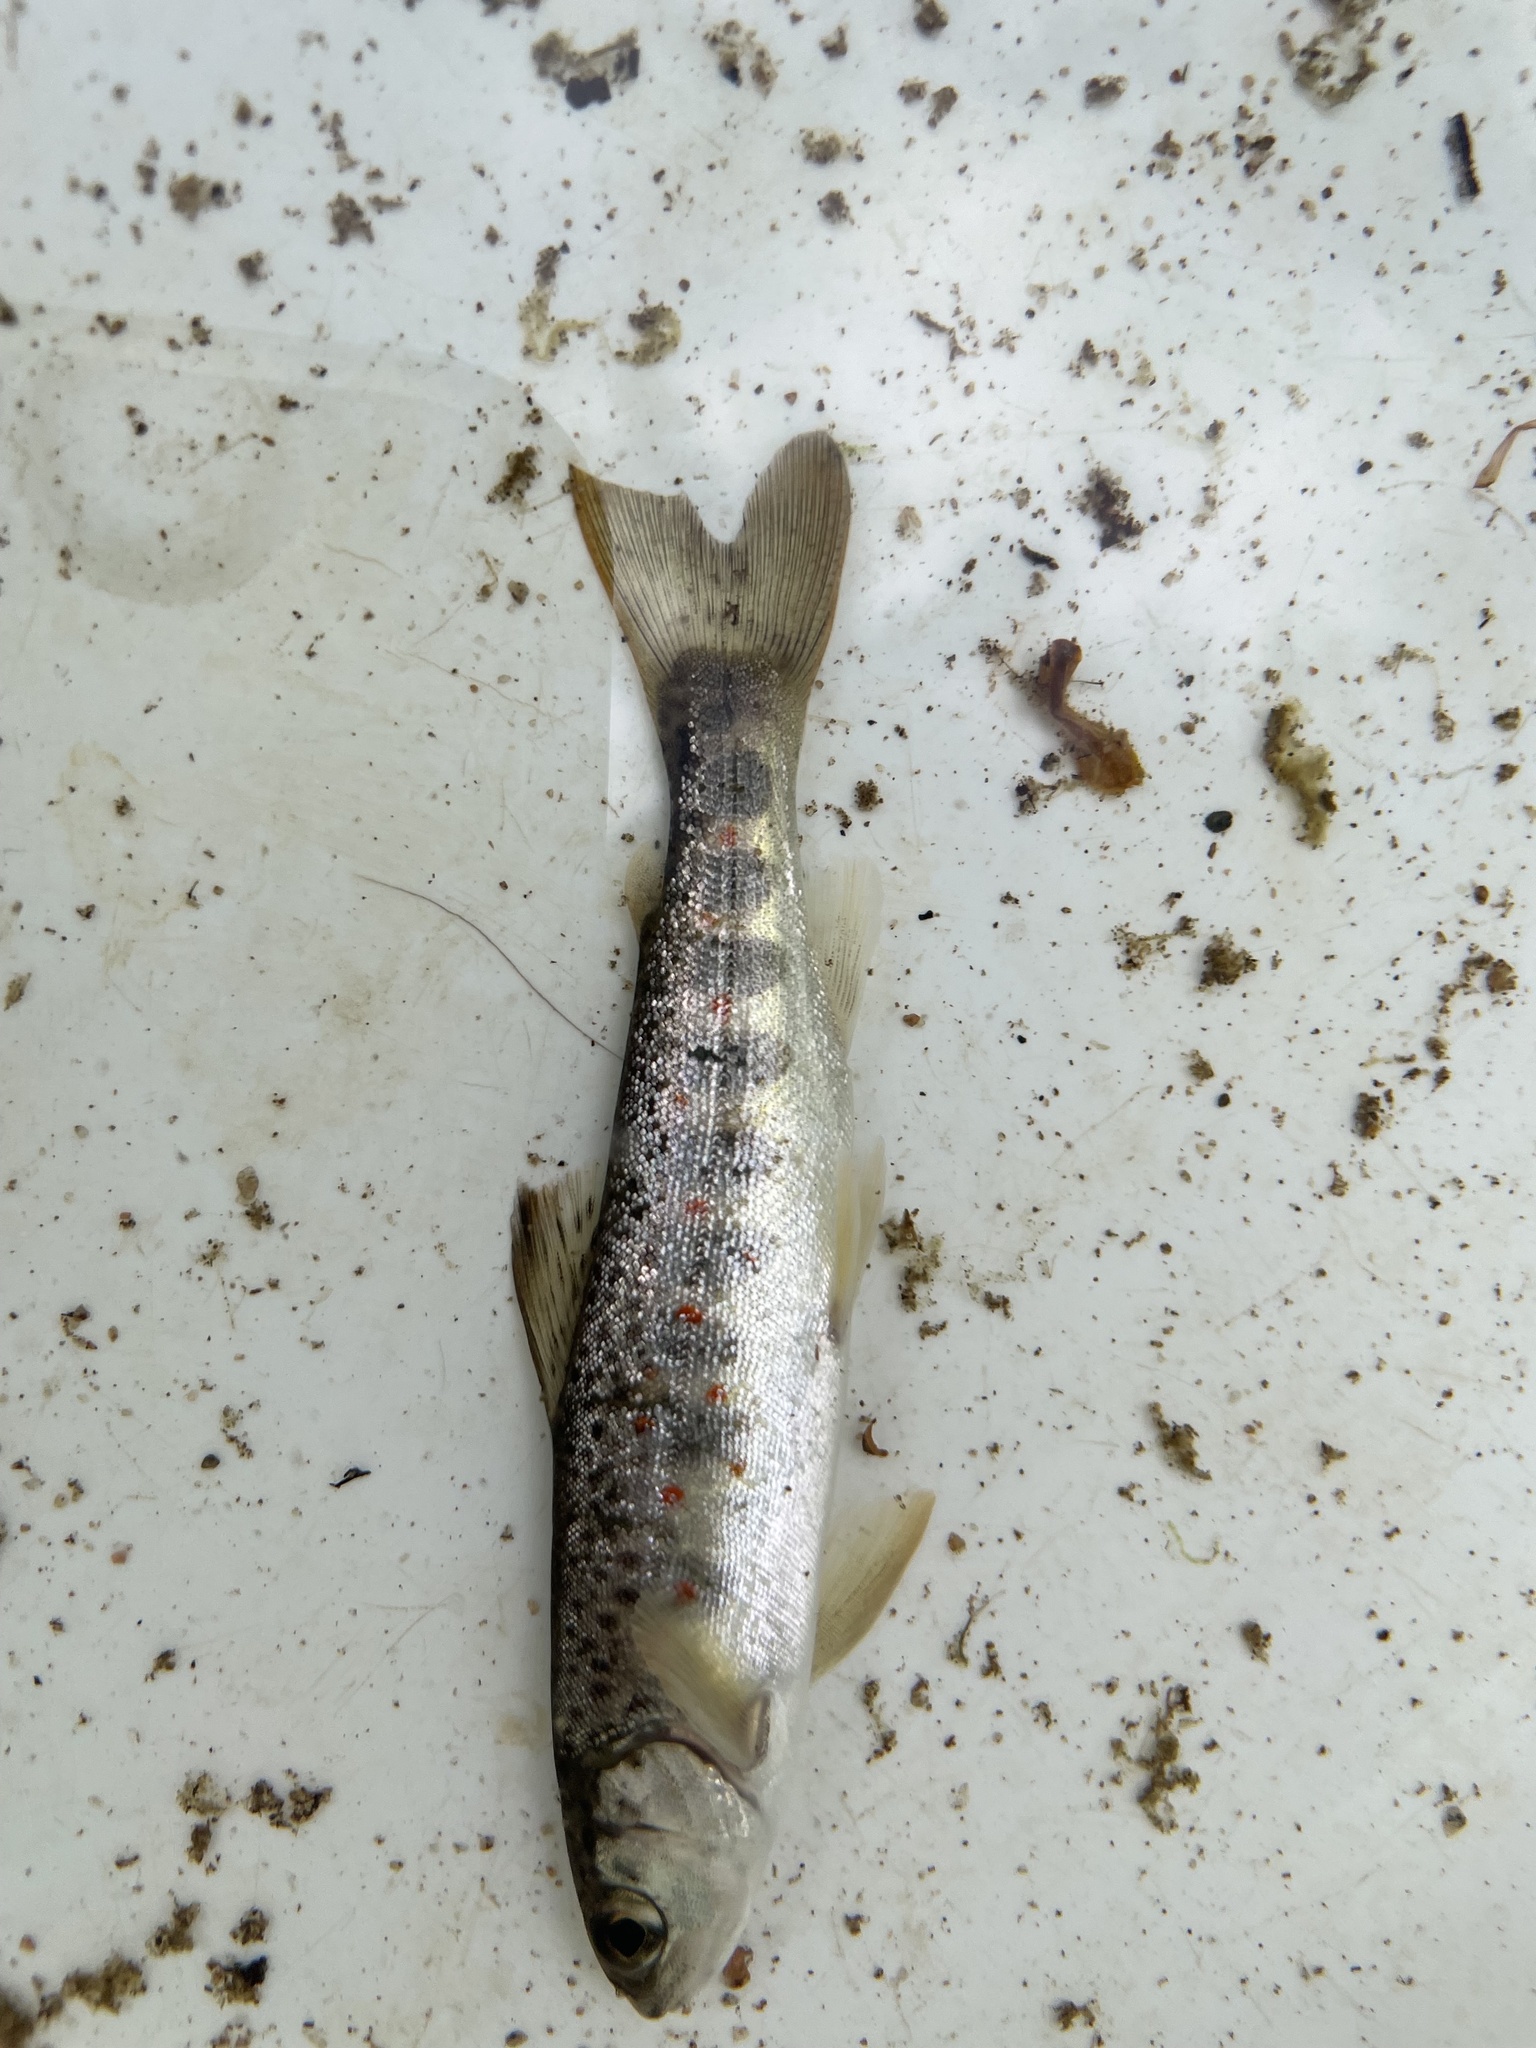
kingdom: Animalia
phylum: Chordata
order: Salmoniformes
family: Salmonidae
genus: Salmo
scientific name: Salmo salar
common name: Atlantic salmon
